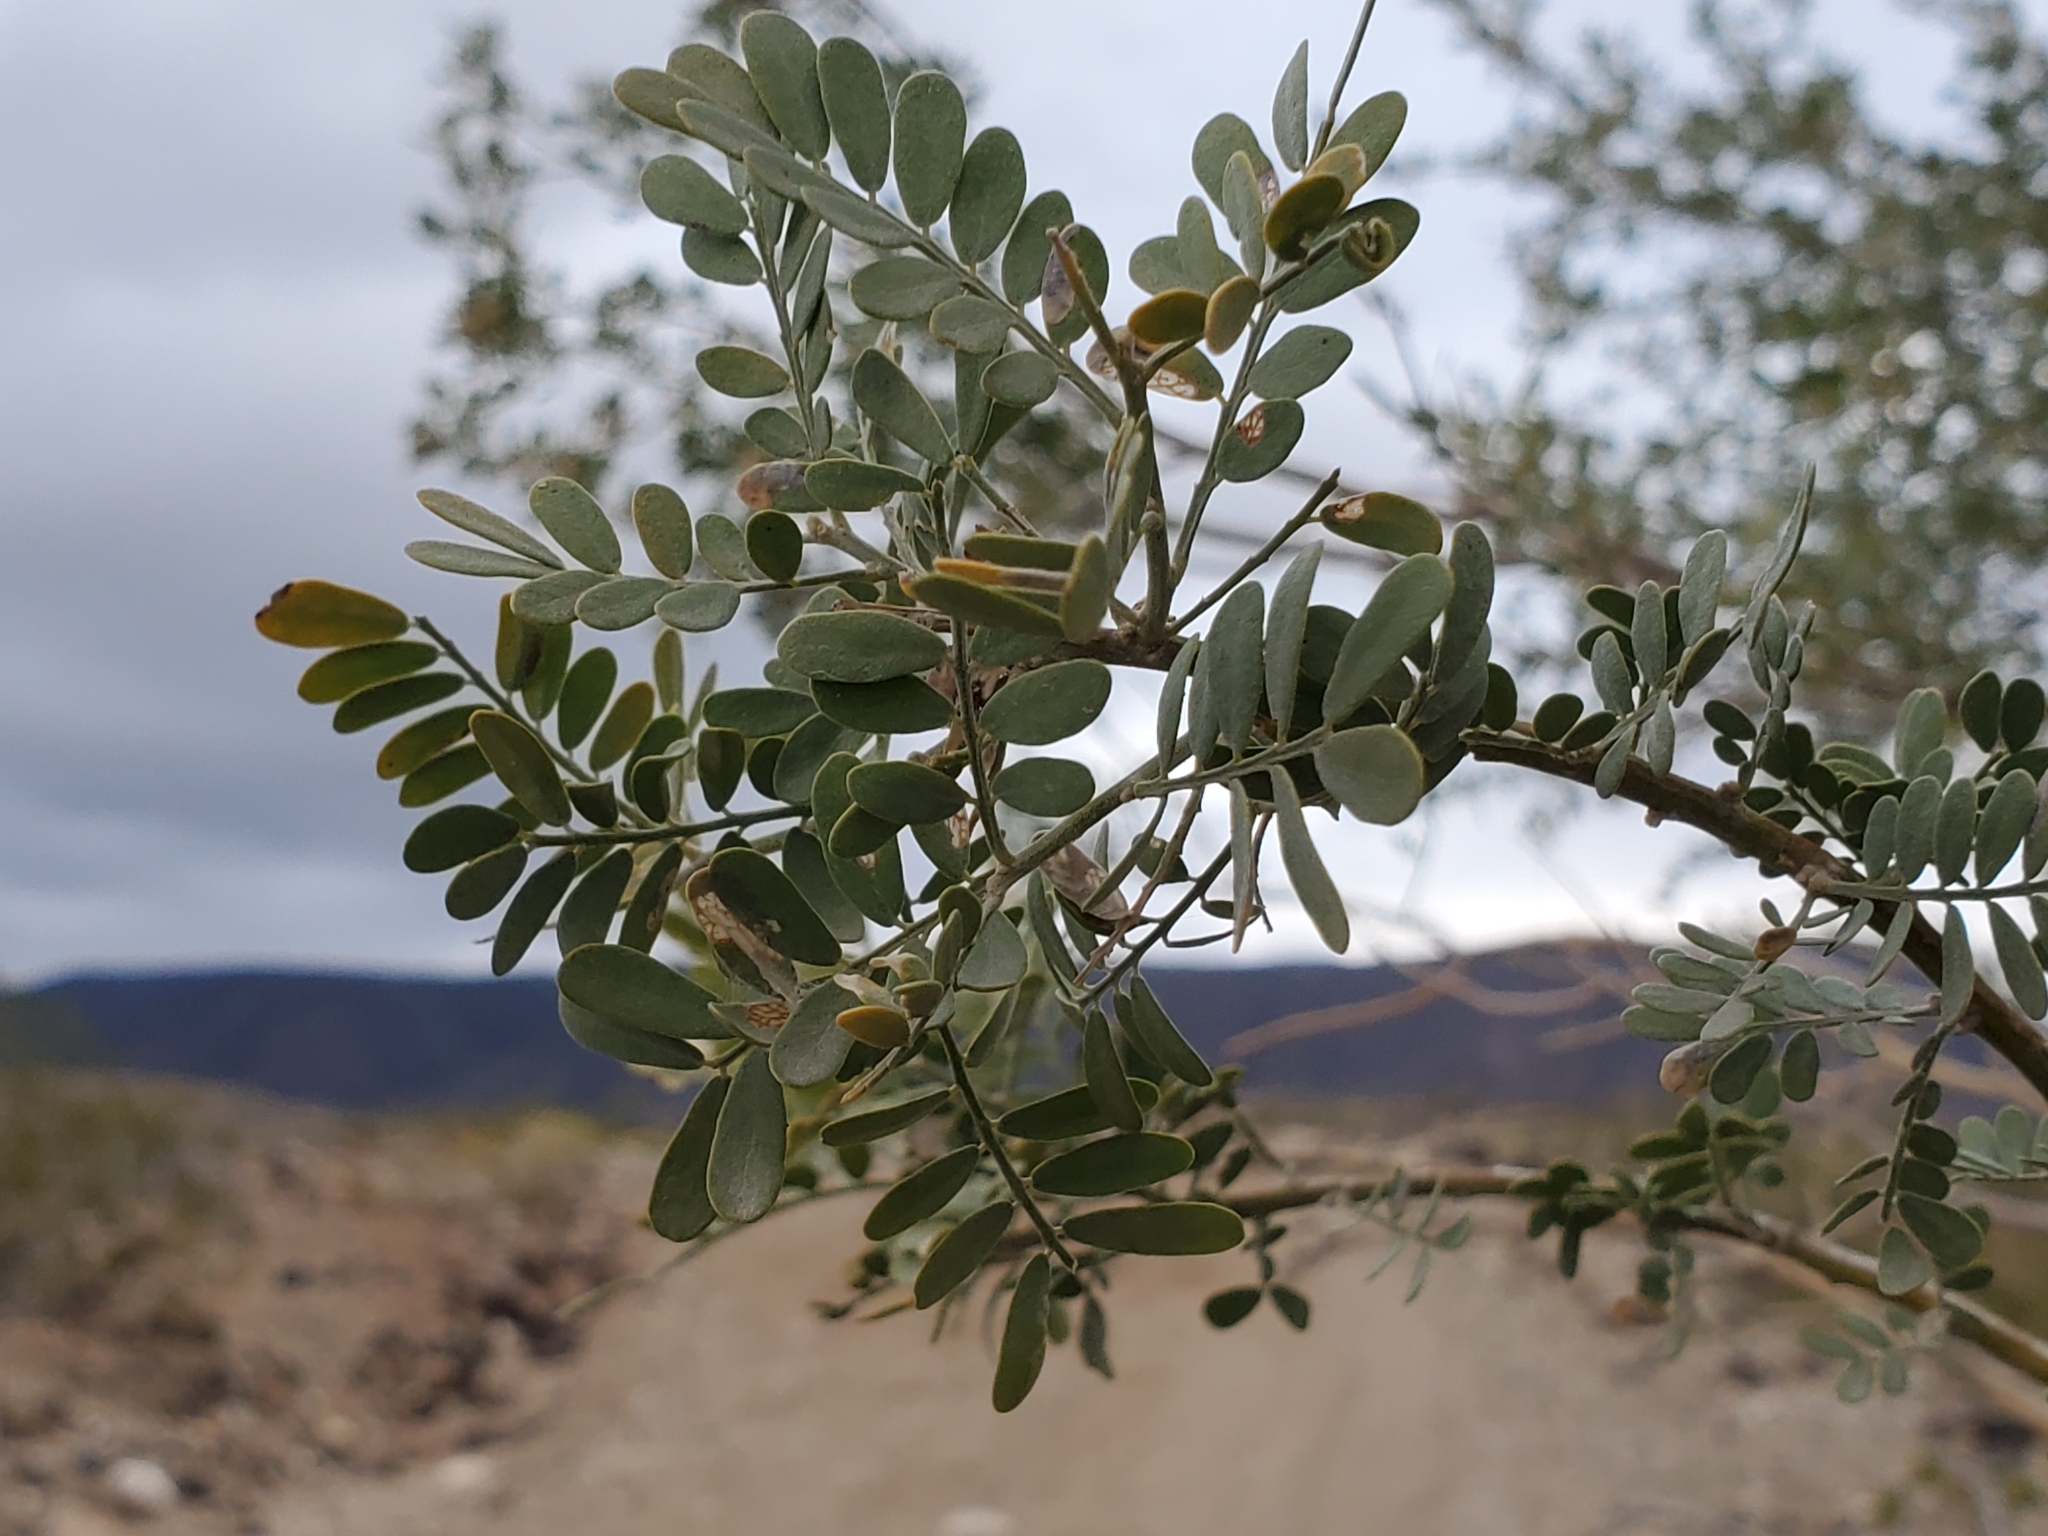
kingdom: Plantae
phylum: Tracheophyta
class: Magnoliopsida
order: Fabales
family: Fabaceae
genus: Olneya
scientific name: Olneya tesota
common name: Desert ironwood
